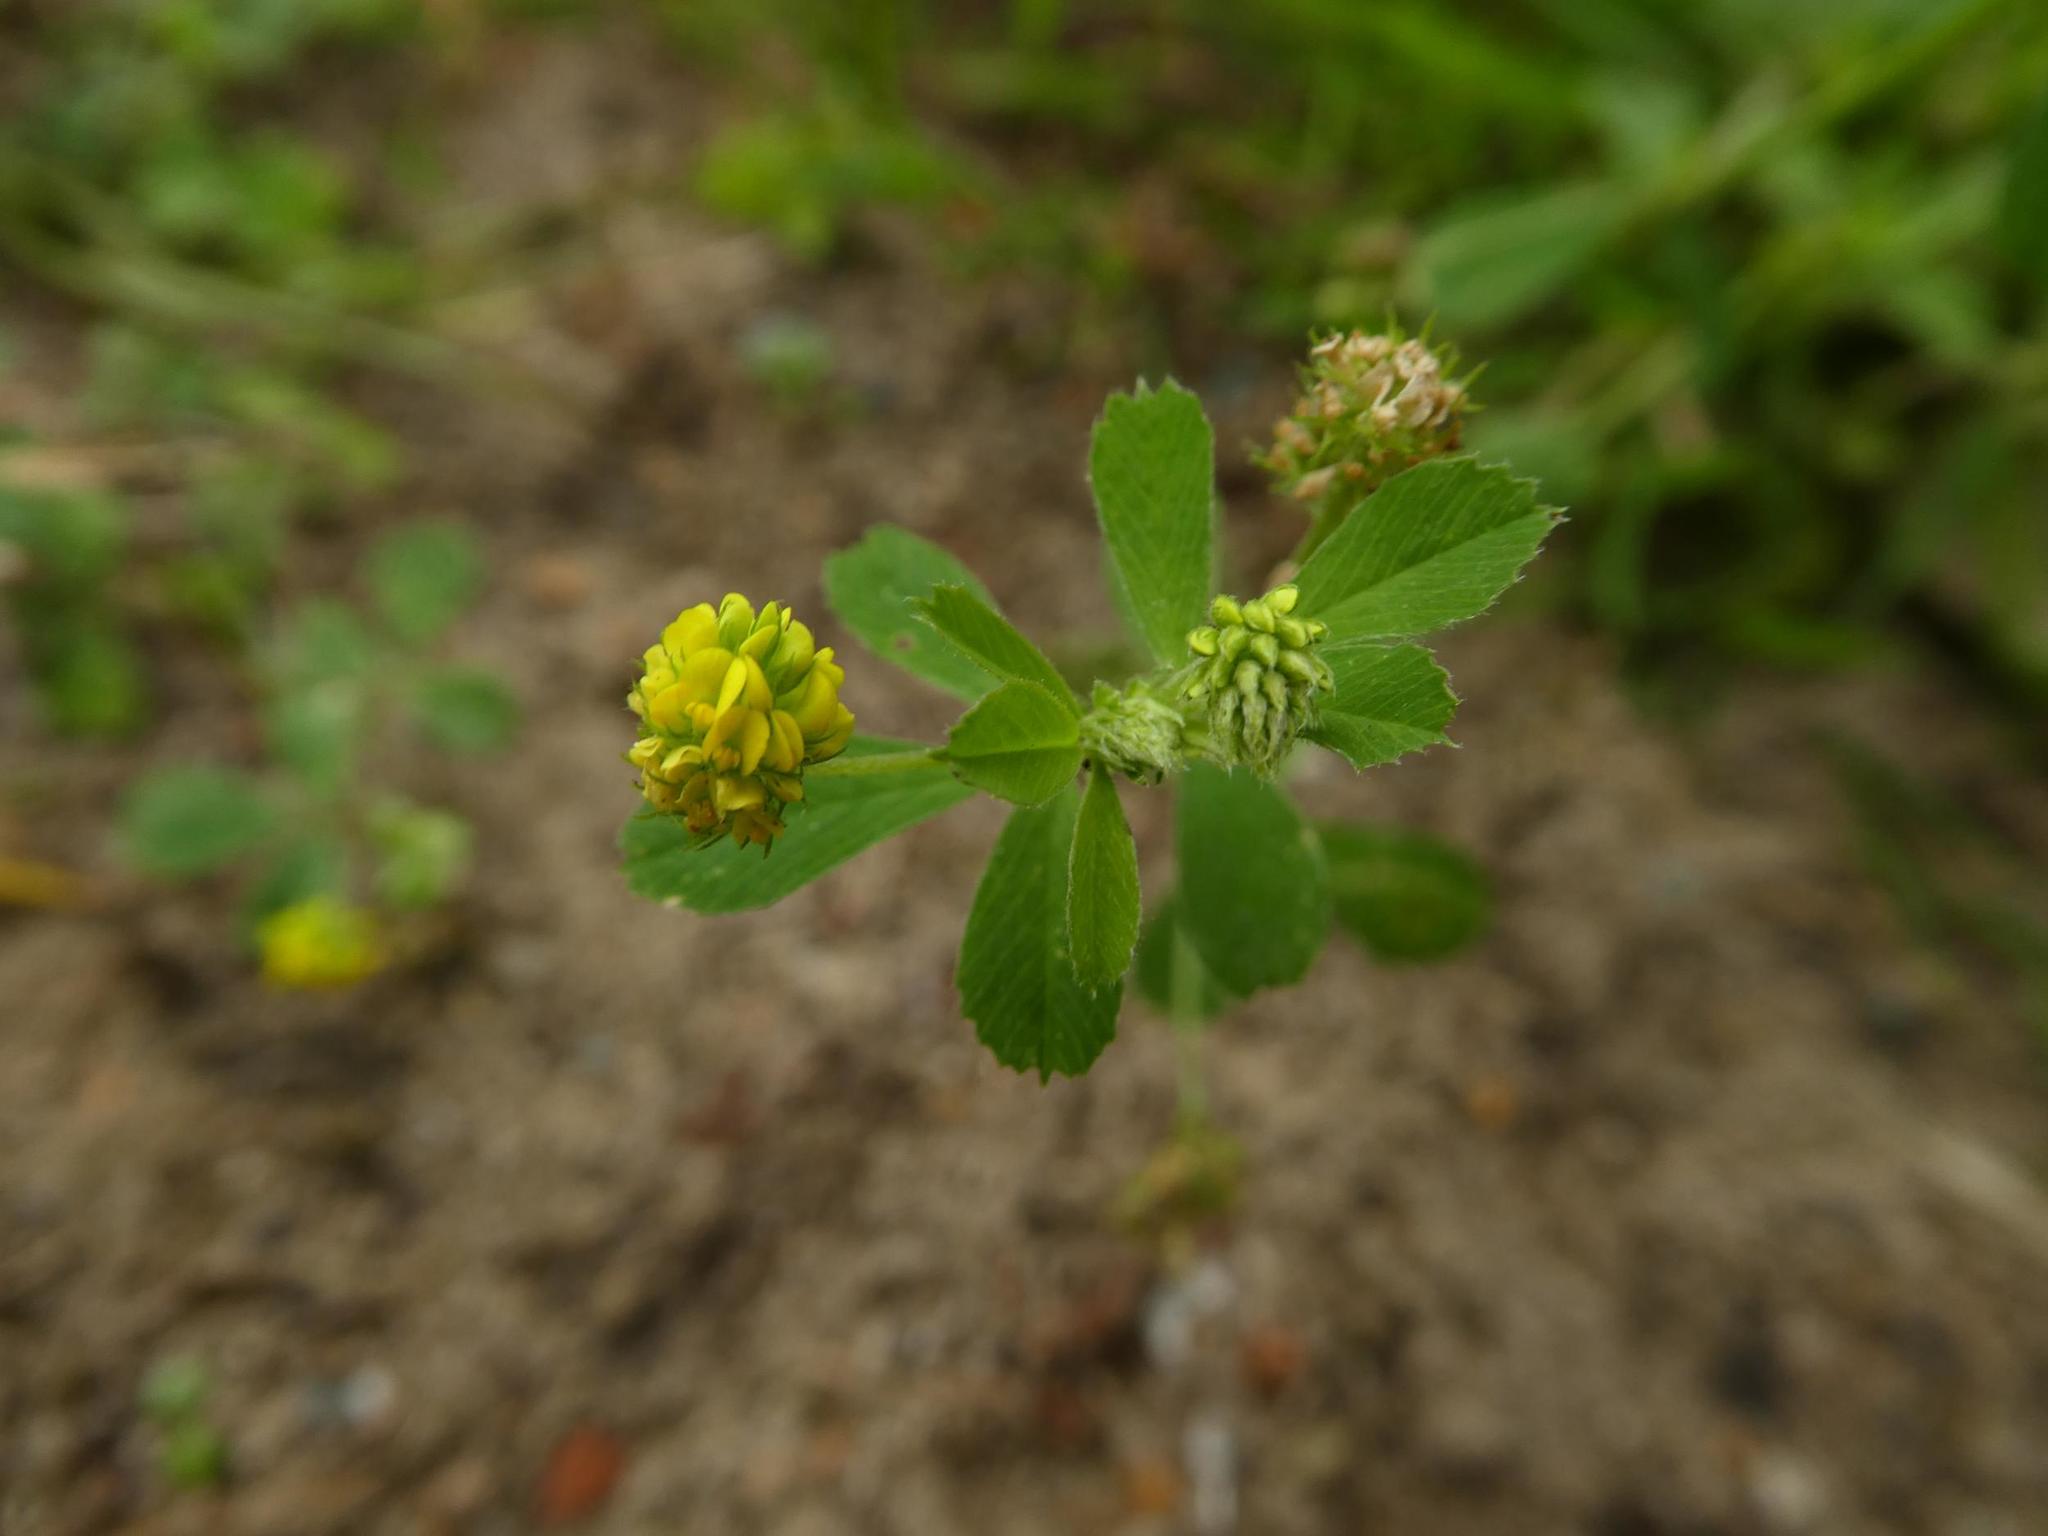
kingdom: Plantae
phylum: Tracheophyta
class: Magnoliopsida
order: Fabales
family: Fabaceae
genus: Medicago
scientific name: Medicago lupulina
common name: Black medick
